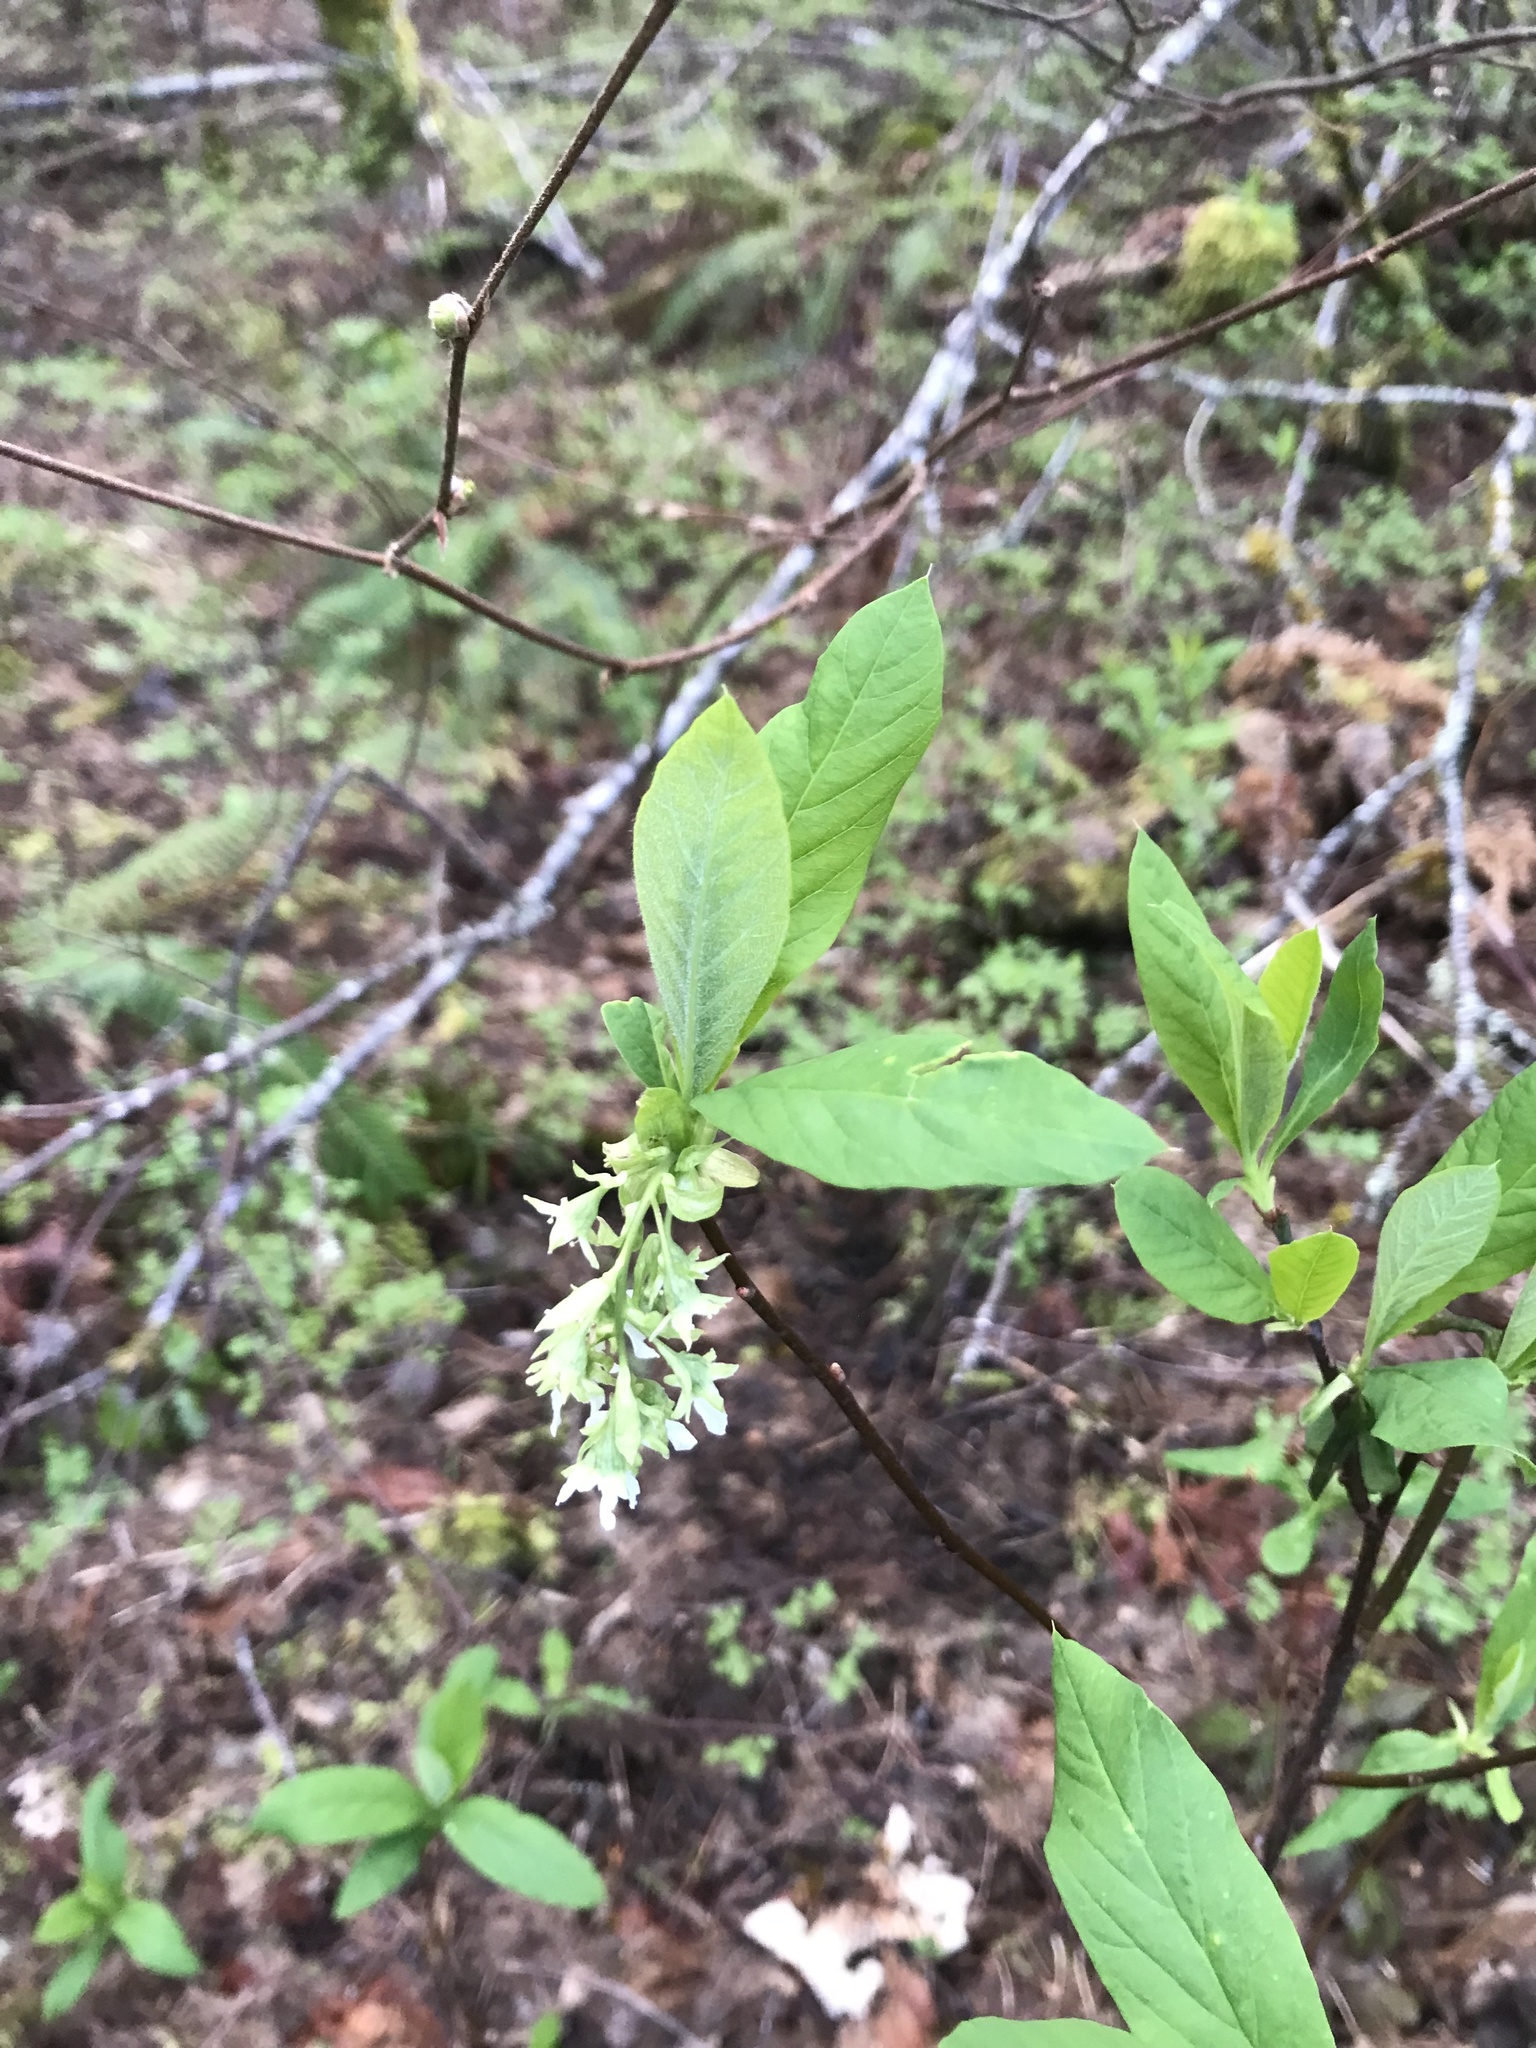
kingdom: Plantae
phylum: Tracheophyta
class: Magnoliopsida
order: Rosales
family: Rosaceae
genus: Oemleria
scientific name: Oemleria cerasiformis
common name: Osoberry
